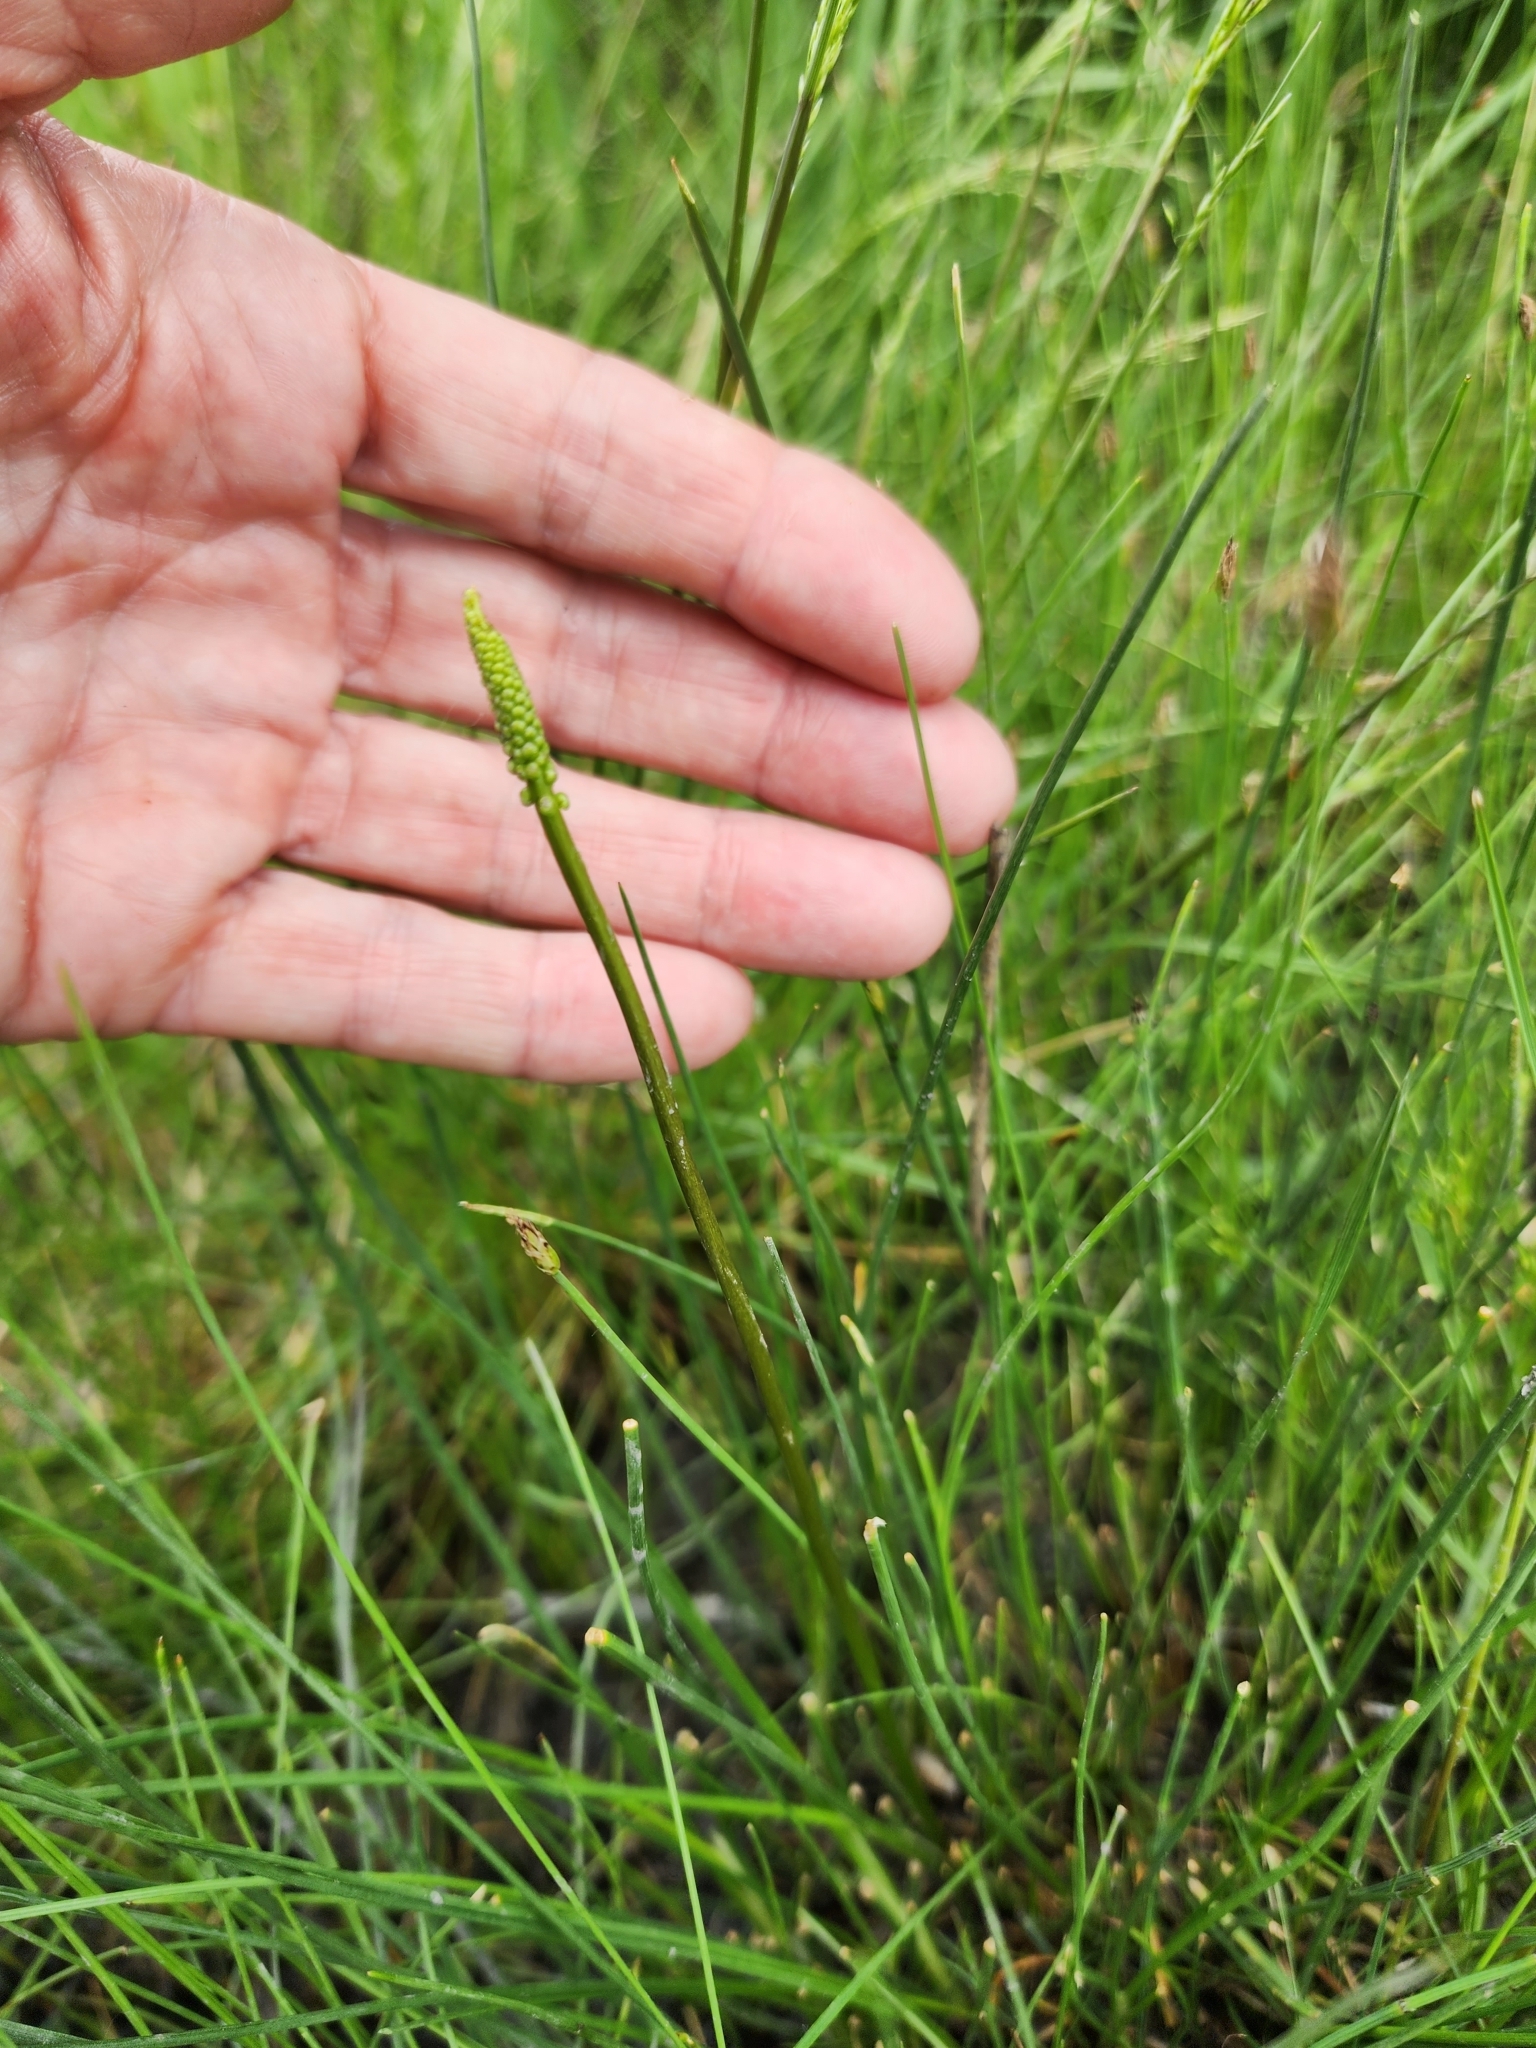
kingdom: Plantae
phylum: Tracheophyta
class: Liliopsida
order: Alismatales
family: Juncaginaceae
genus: Triglochin
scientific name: Triglochin maritima
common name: Sea arrowgrass
